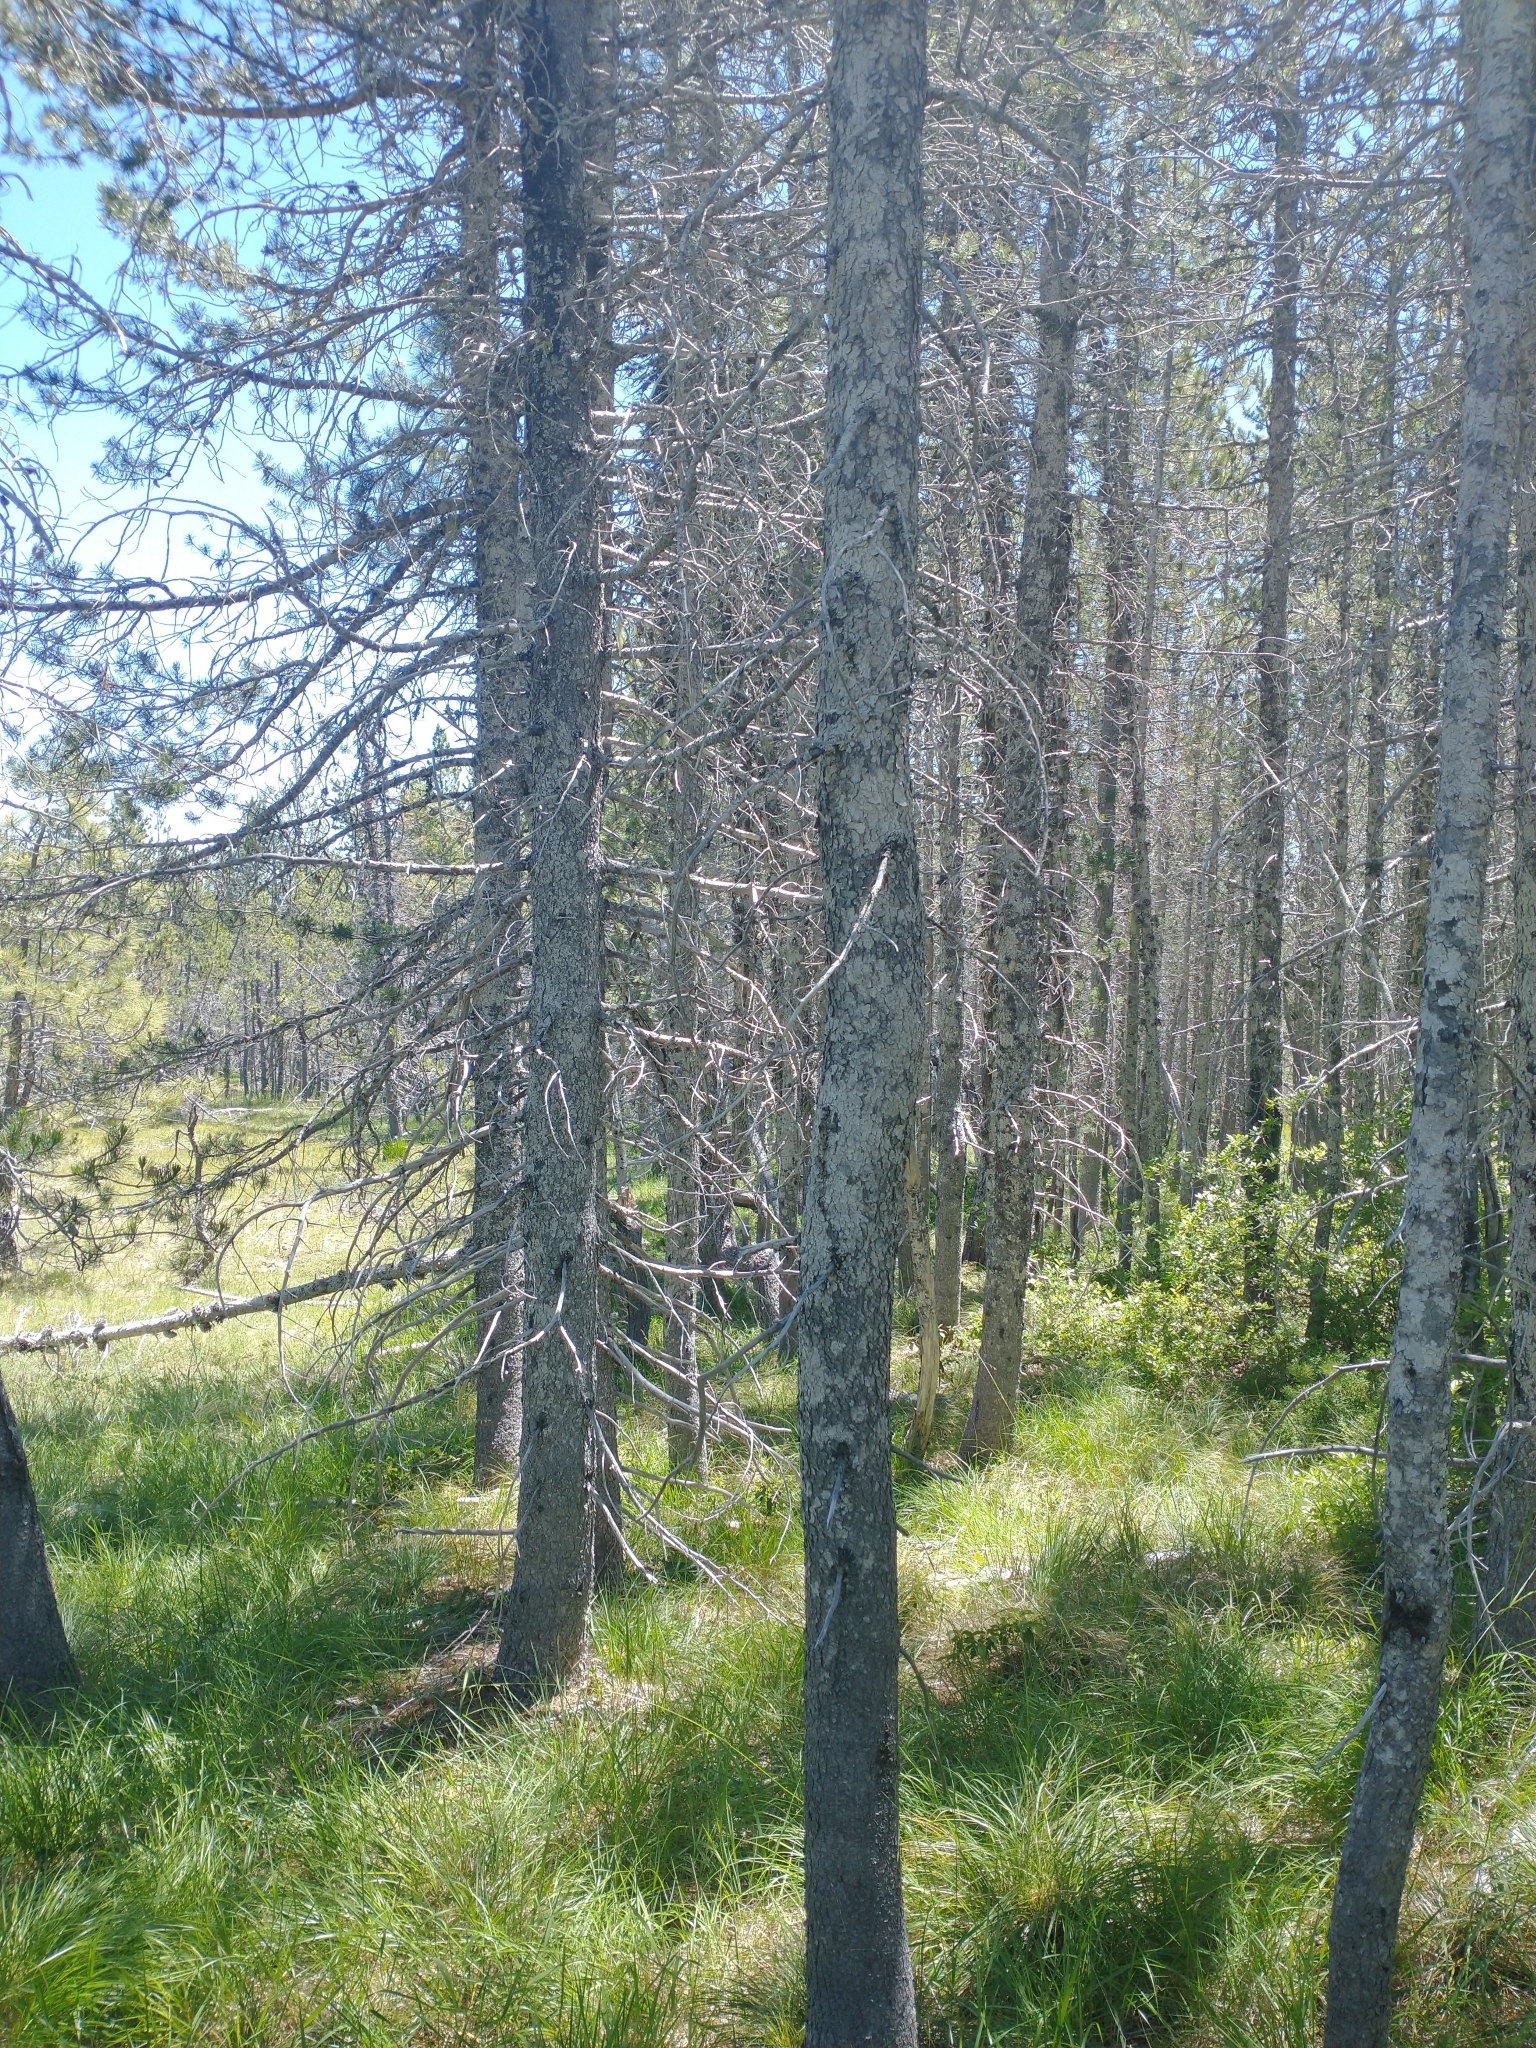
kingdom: Plantae
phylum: Tracheophyta
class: Pinopsida
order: Pinales
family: Pinaceae
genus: Pinus
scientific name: Pinus contorta
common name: Lodgepole pine
